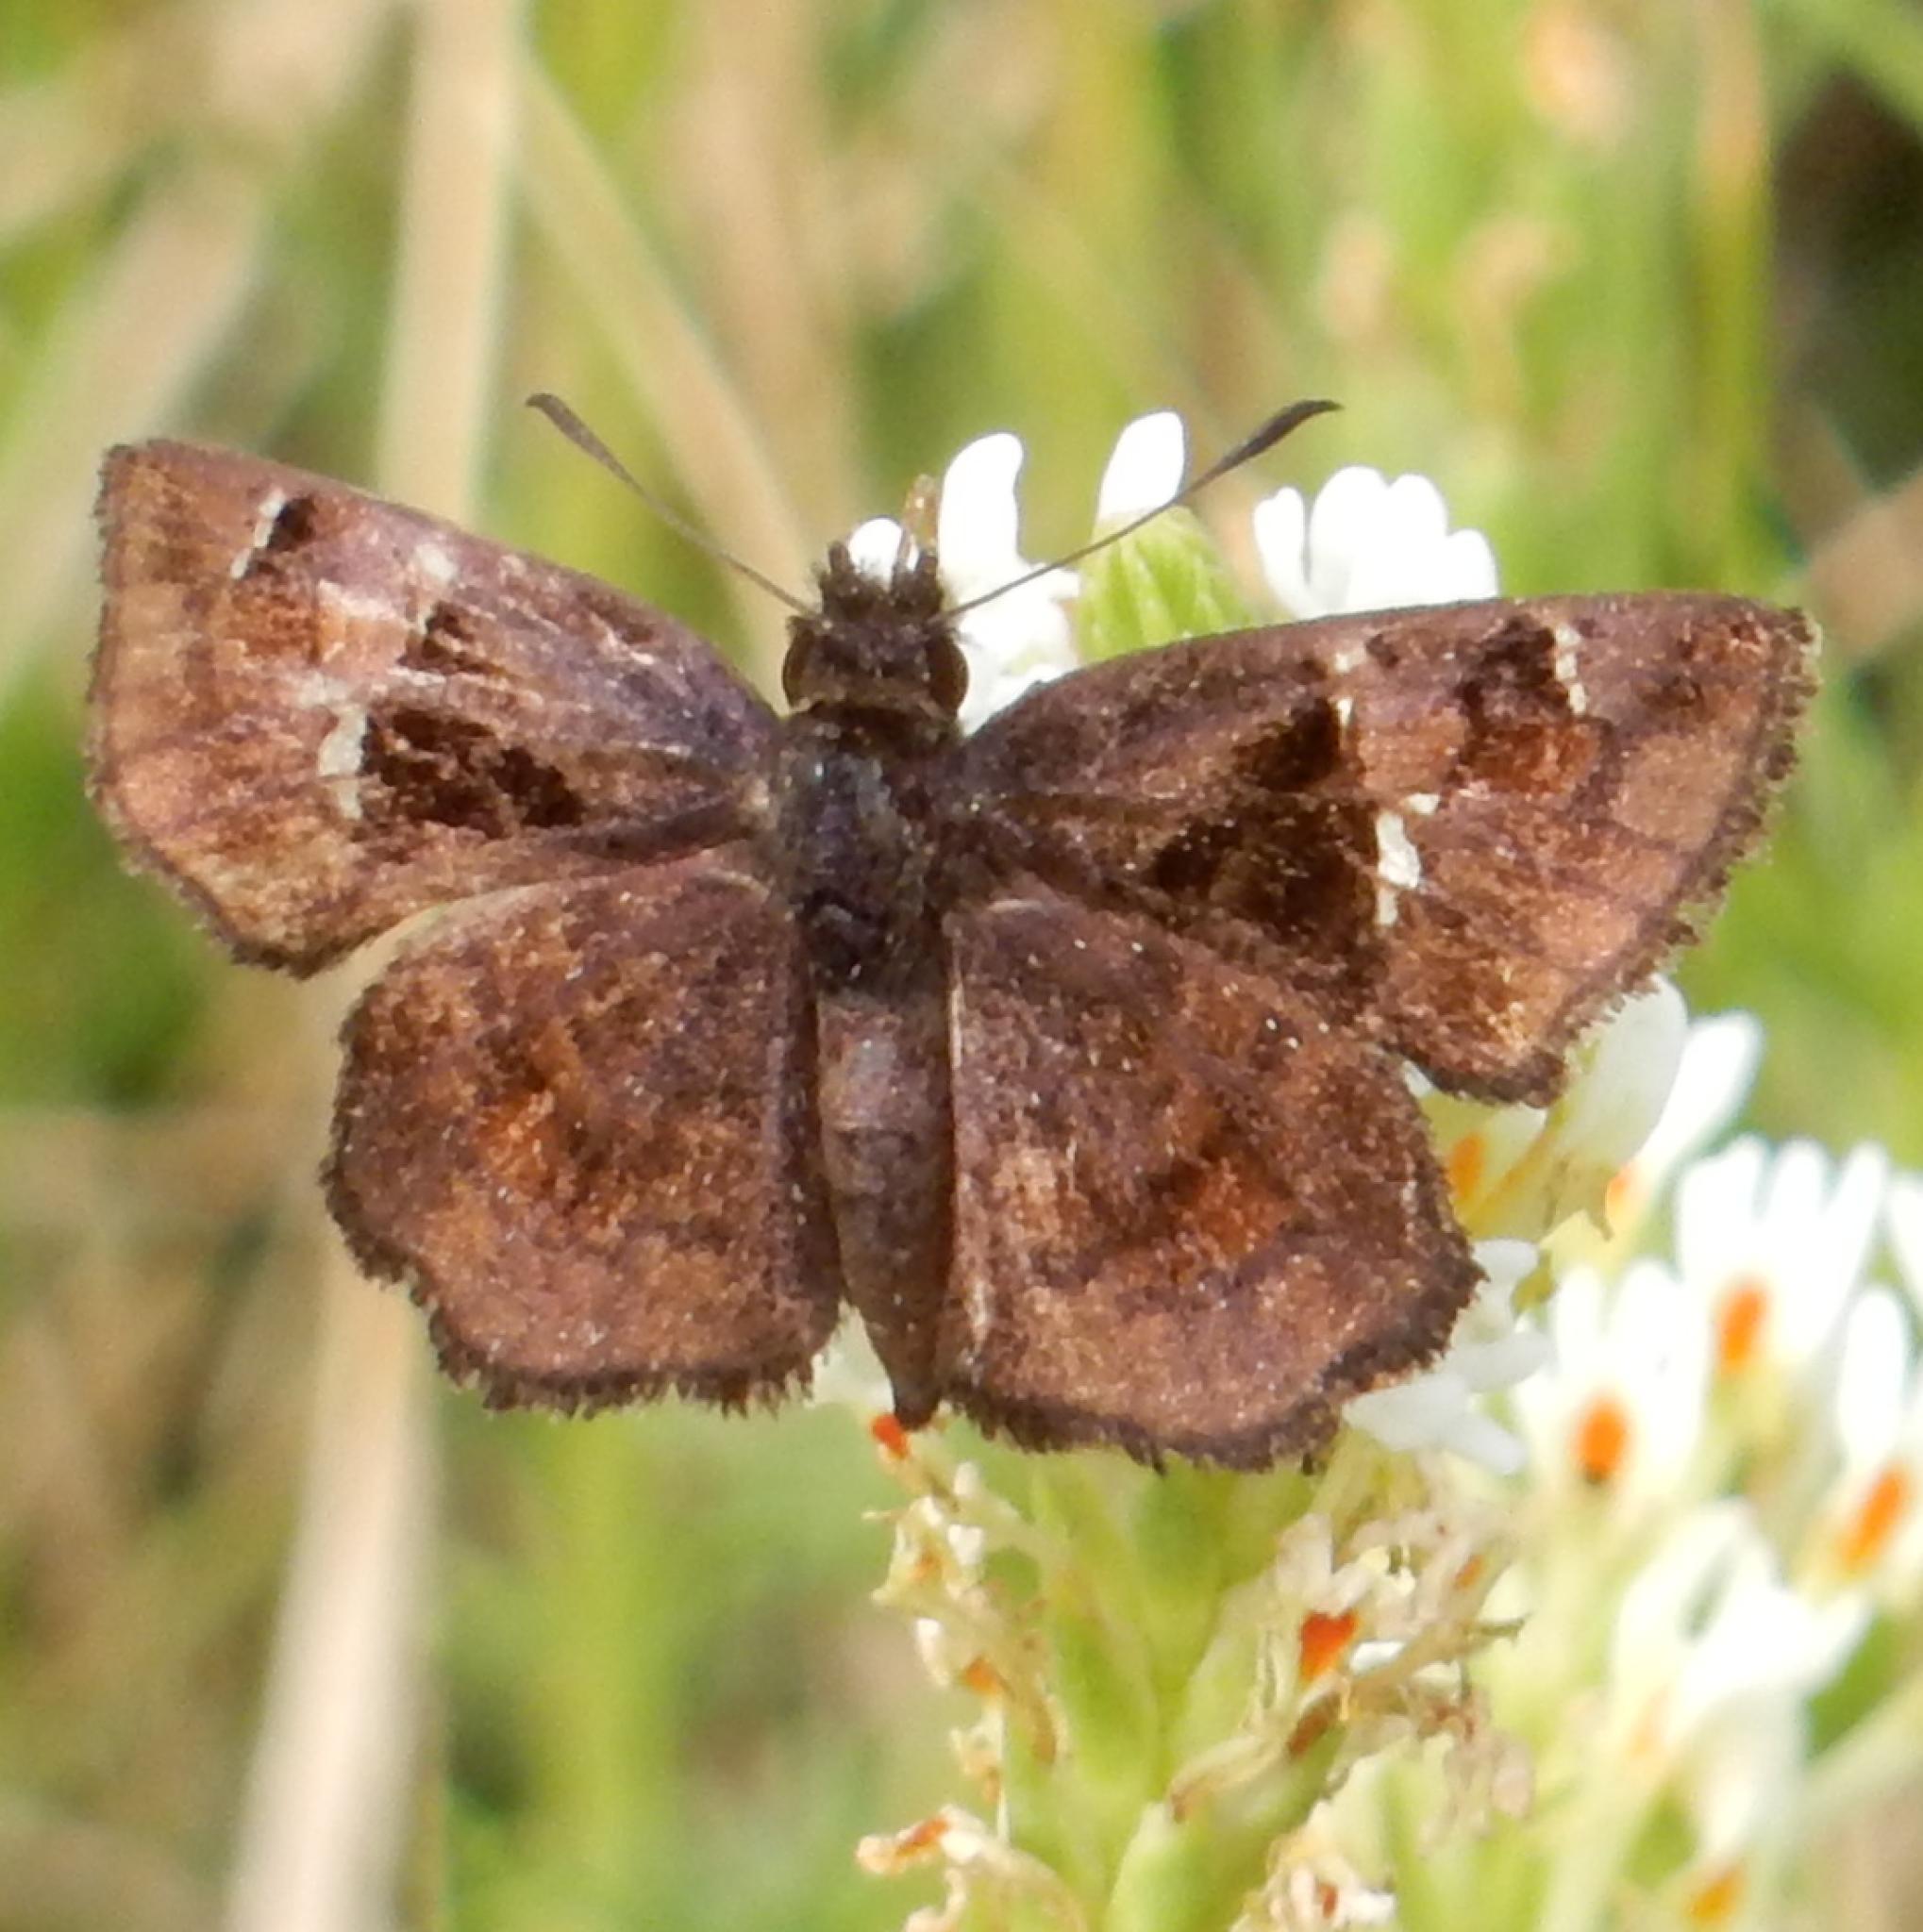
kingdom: Animalia
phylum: Arthropoda
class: Insecta
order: Lepidoptera
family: Hesperiidae
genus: Eretis
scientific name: Eretis djaelaelae
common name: Marbled elf
